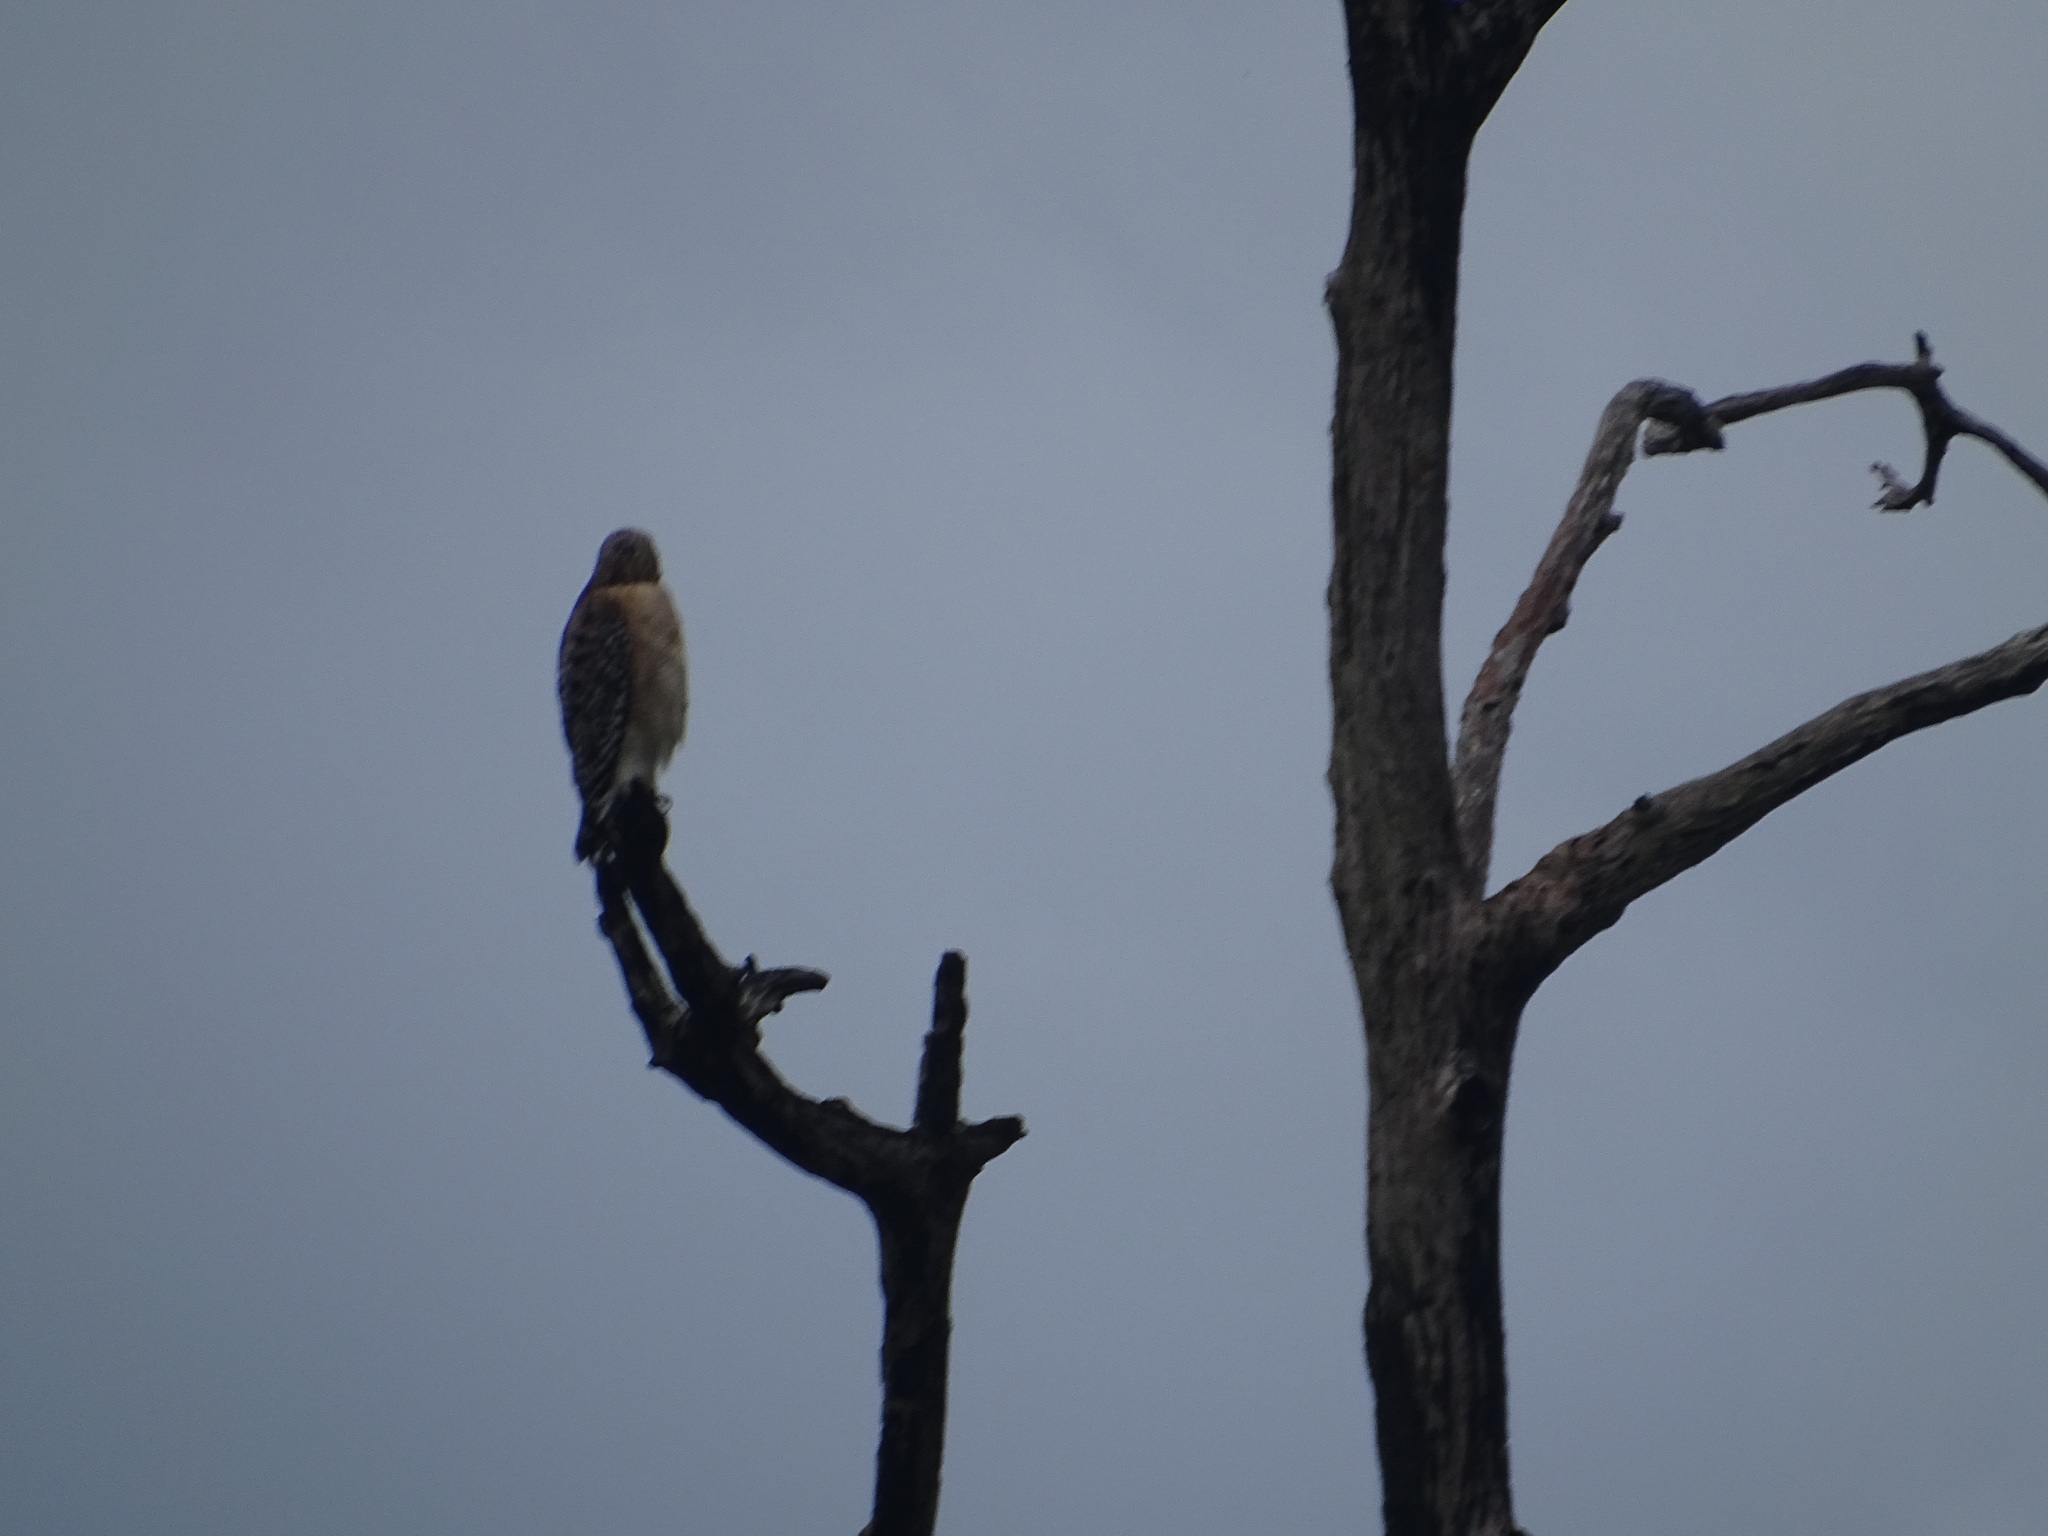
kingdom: Animalia
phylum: Chordata
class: Aves
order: Accipitriformes
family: Accipitridae
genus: Buteo
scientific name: Buteo lineatus
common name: Red-shouldered hawk
